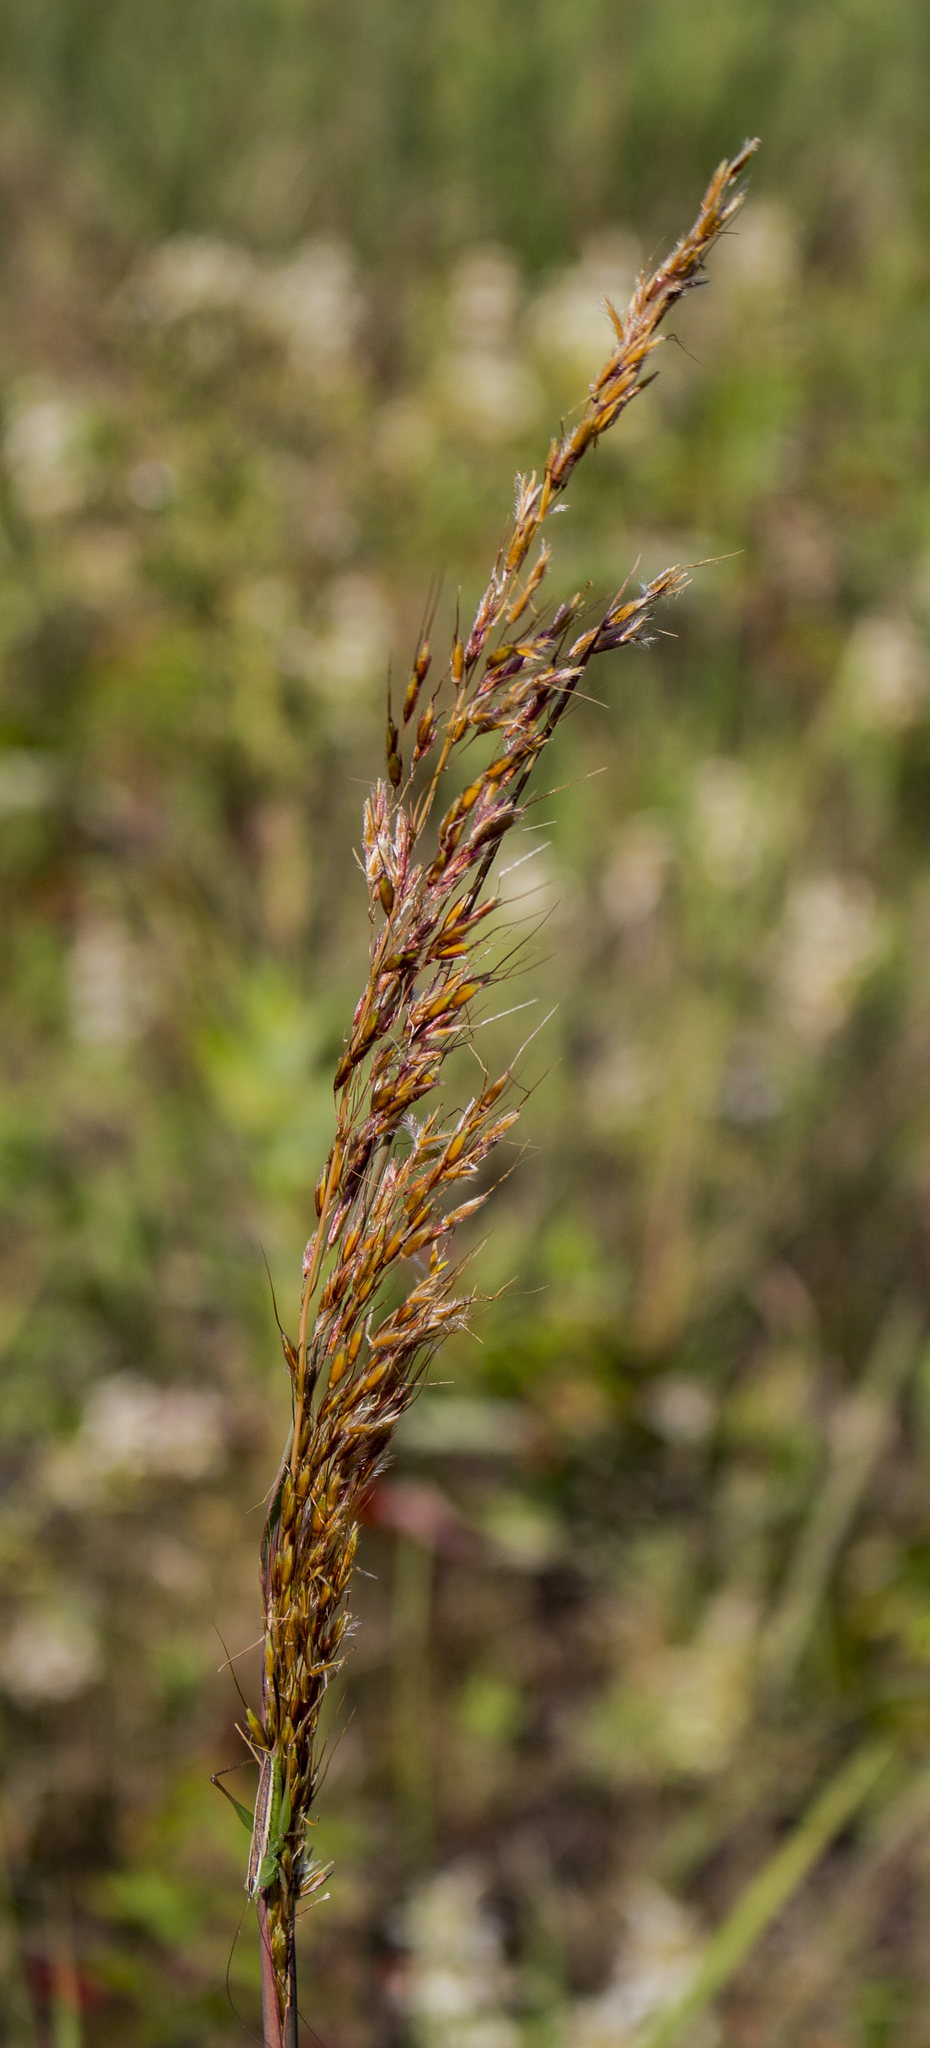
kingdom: Plantae
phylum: Tracheophyta
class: Liliopsida
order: Poales
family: Poaceae
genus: Sorghastrum
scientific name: Sorghastrum nutans
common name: Indian grass
